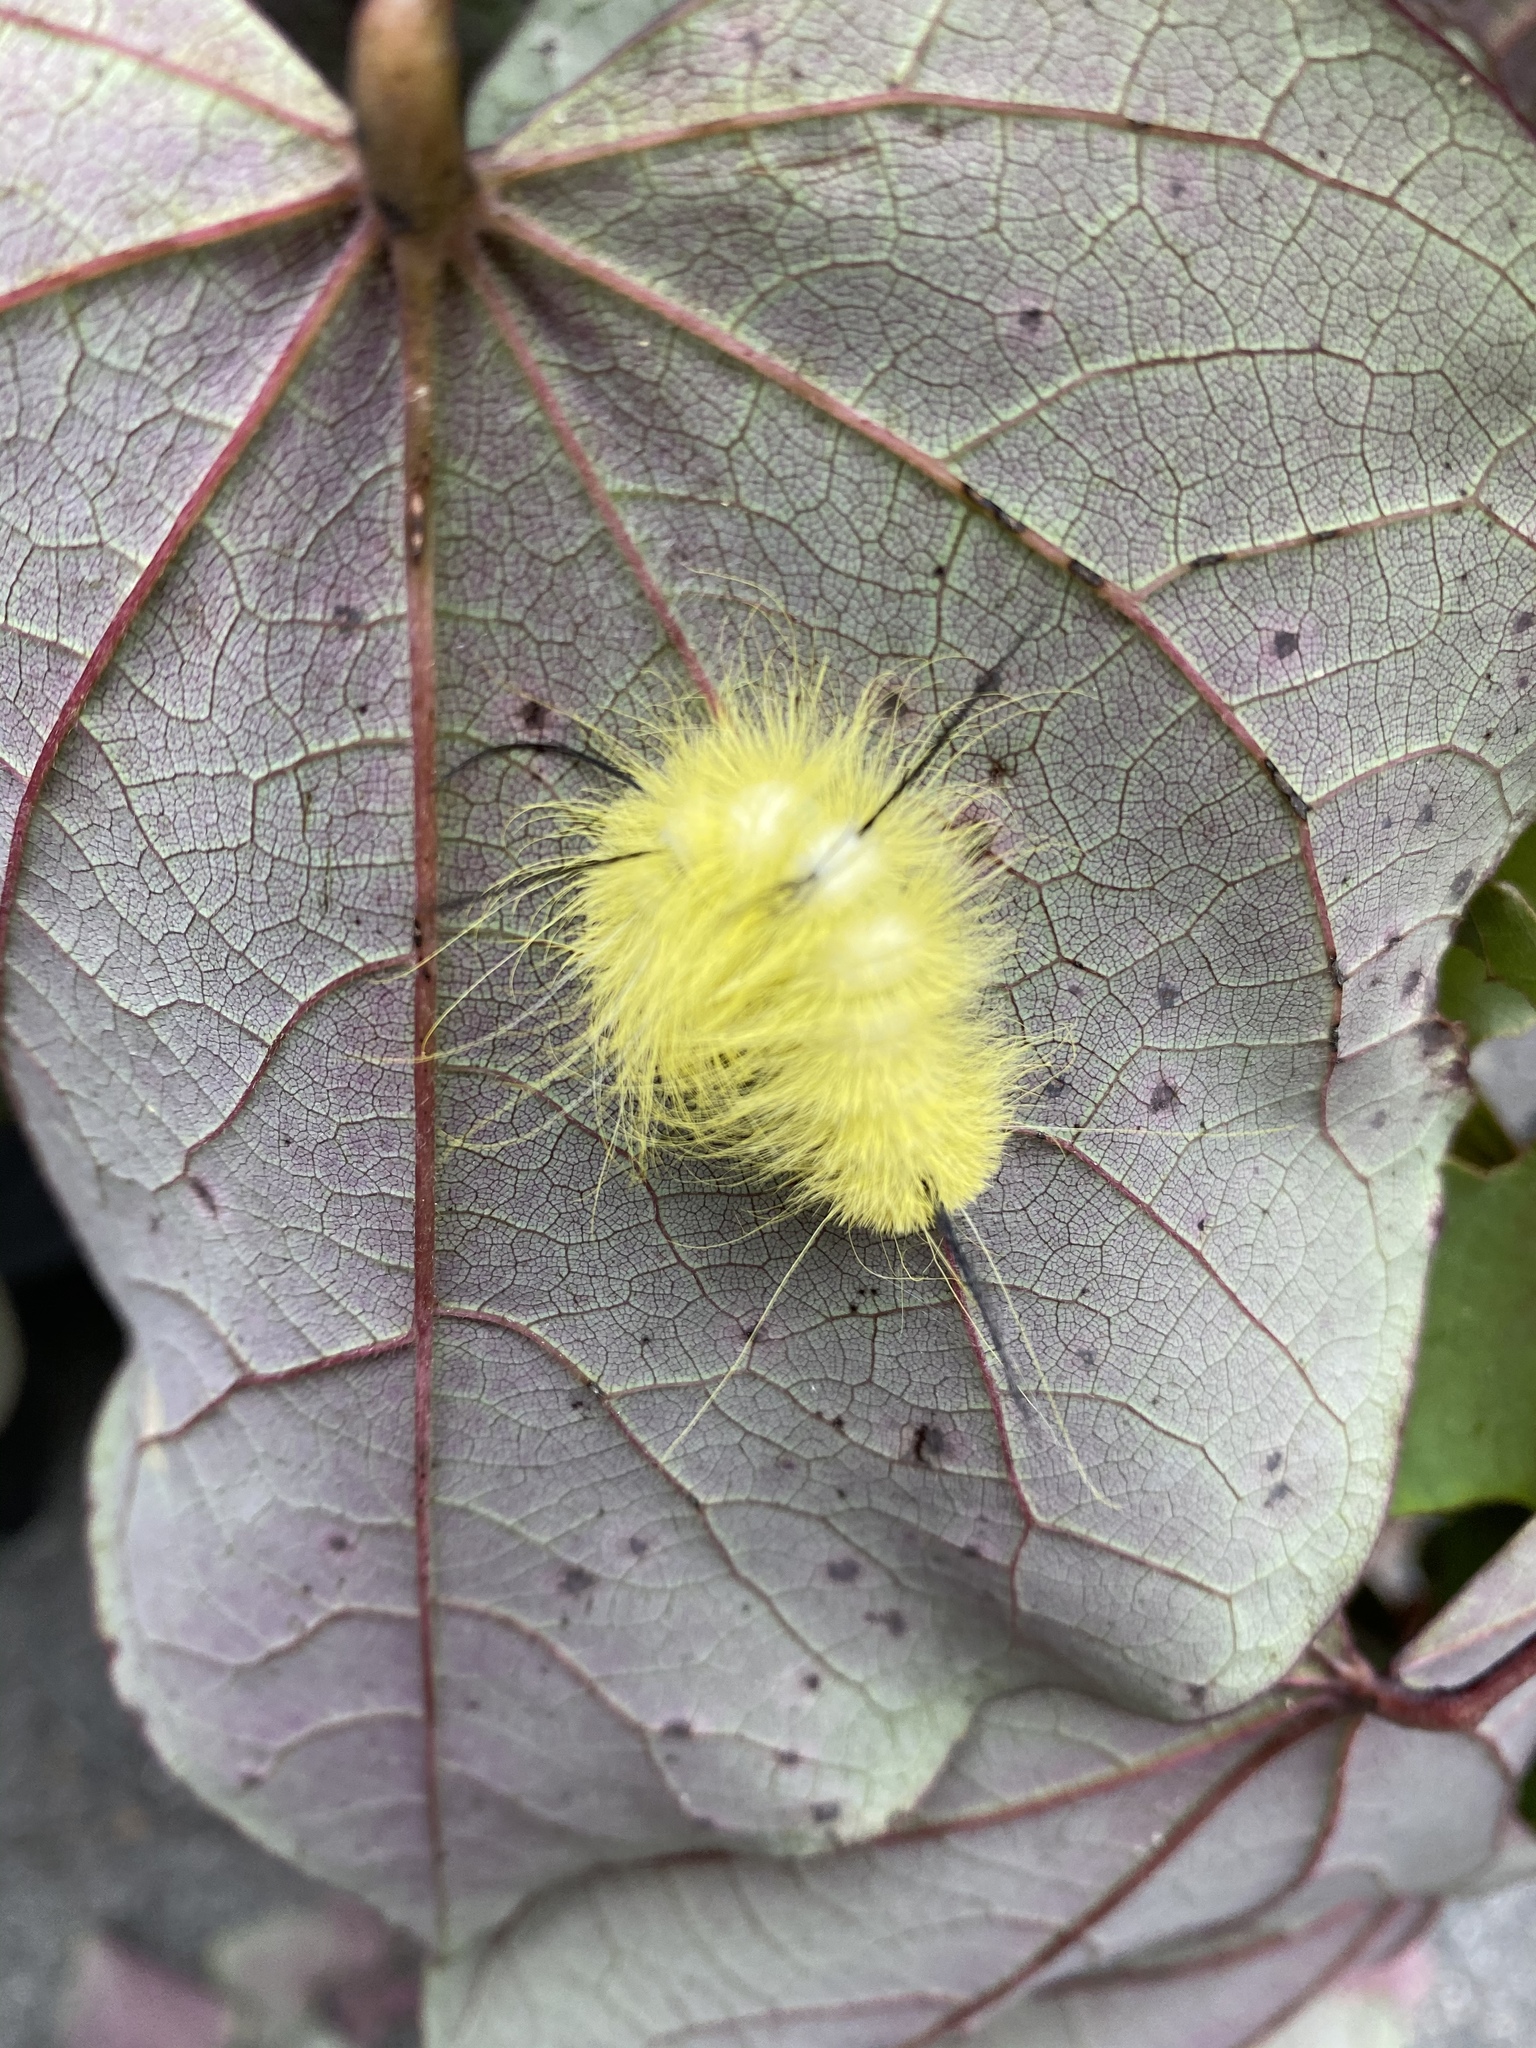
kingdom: Animalia
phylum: Arthropoda
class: Insecta
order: Lepidoptera
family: Noctuidae
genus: Acronicta
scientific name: Acronicta americana
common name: American dagger
